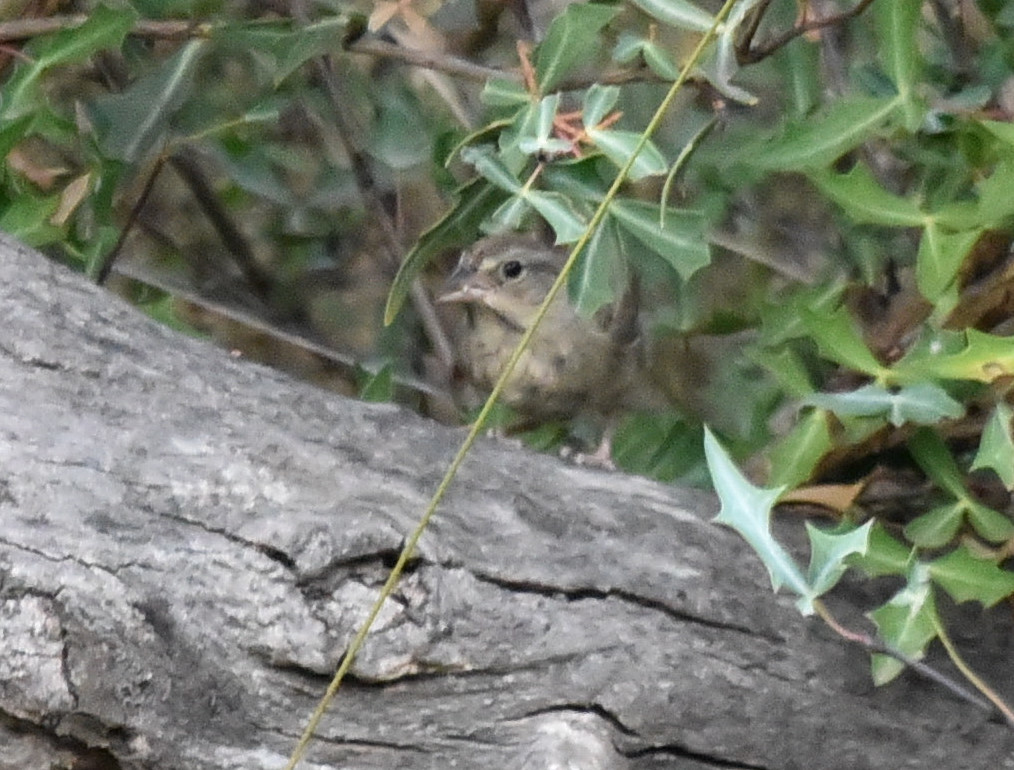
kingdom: Animalia
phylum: Chordata
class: Aves
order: Passeriformes
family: Passerellidae
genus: Aimophila
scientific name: Aimophila ruficeps
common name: Rufous-crowned sparrow
